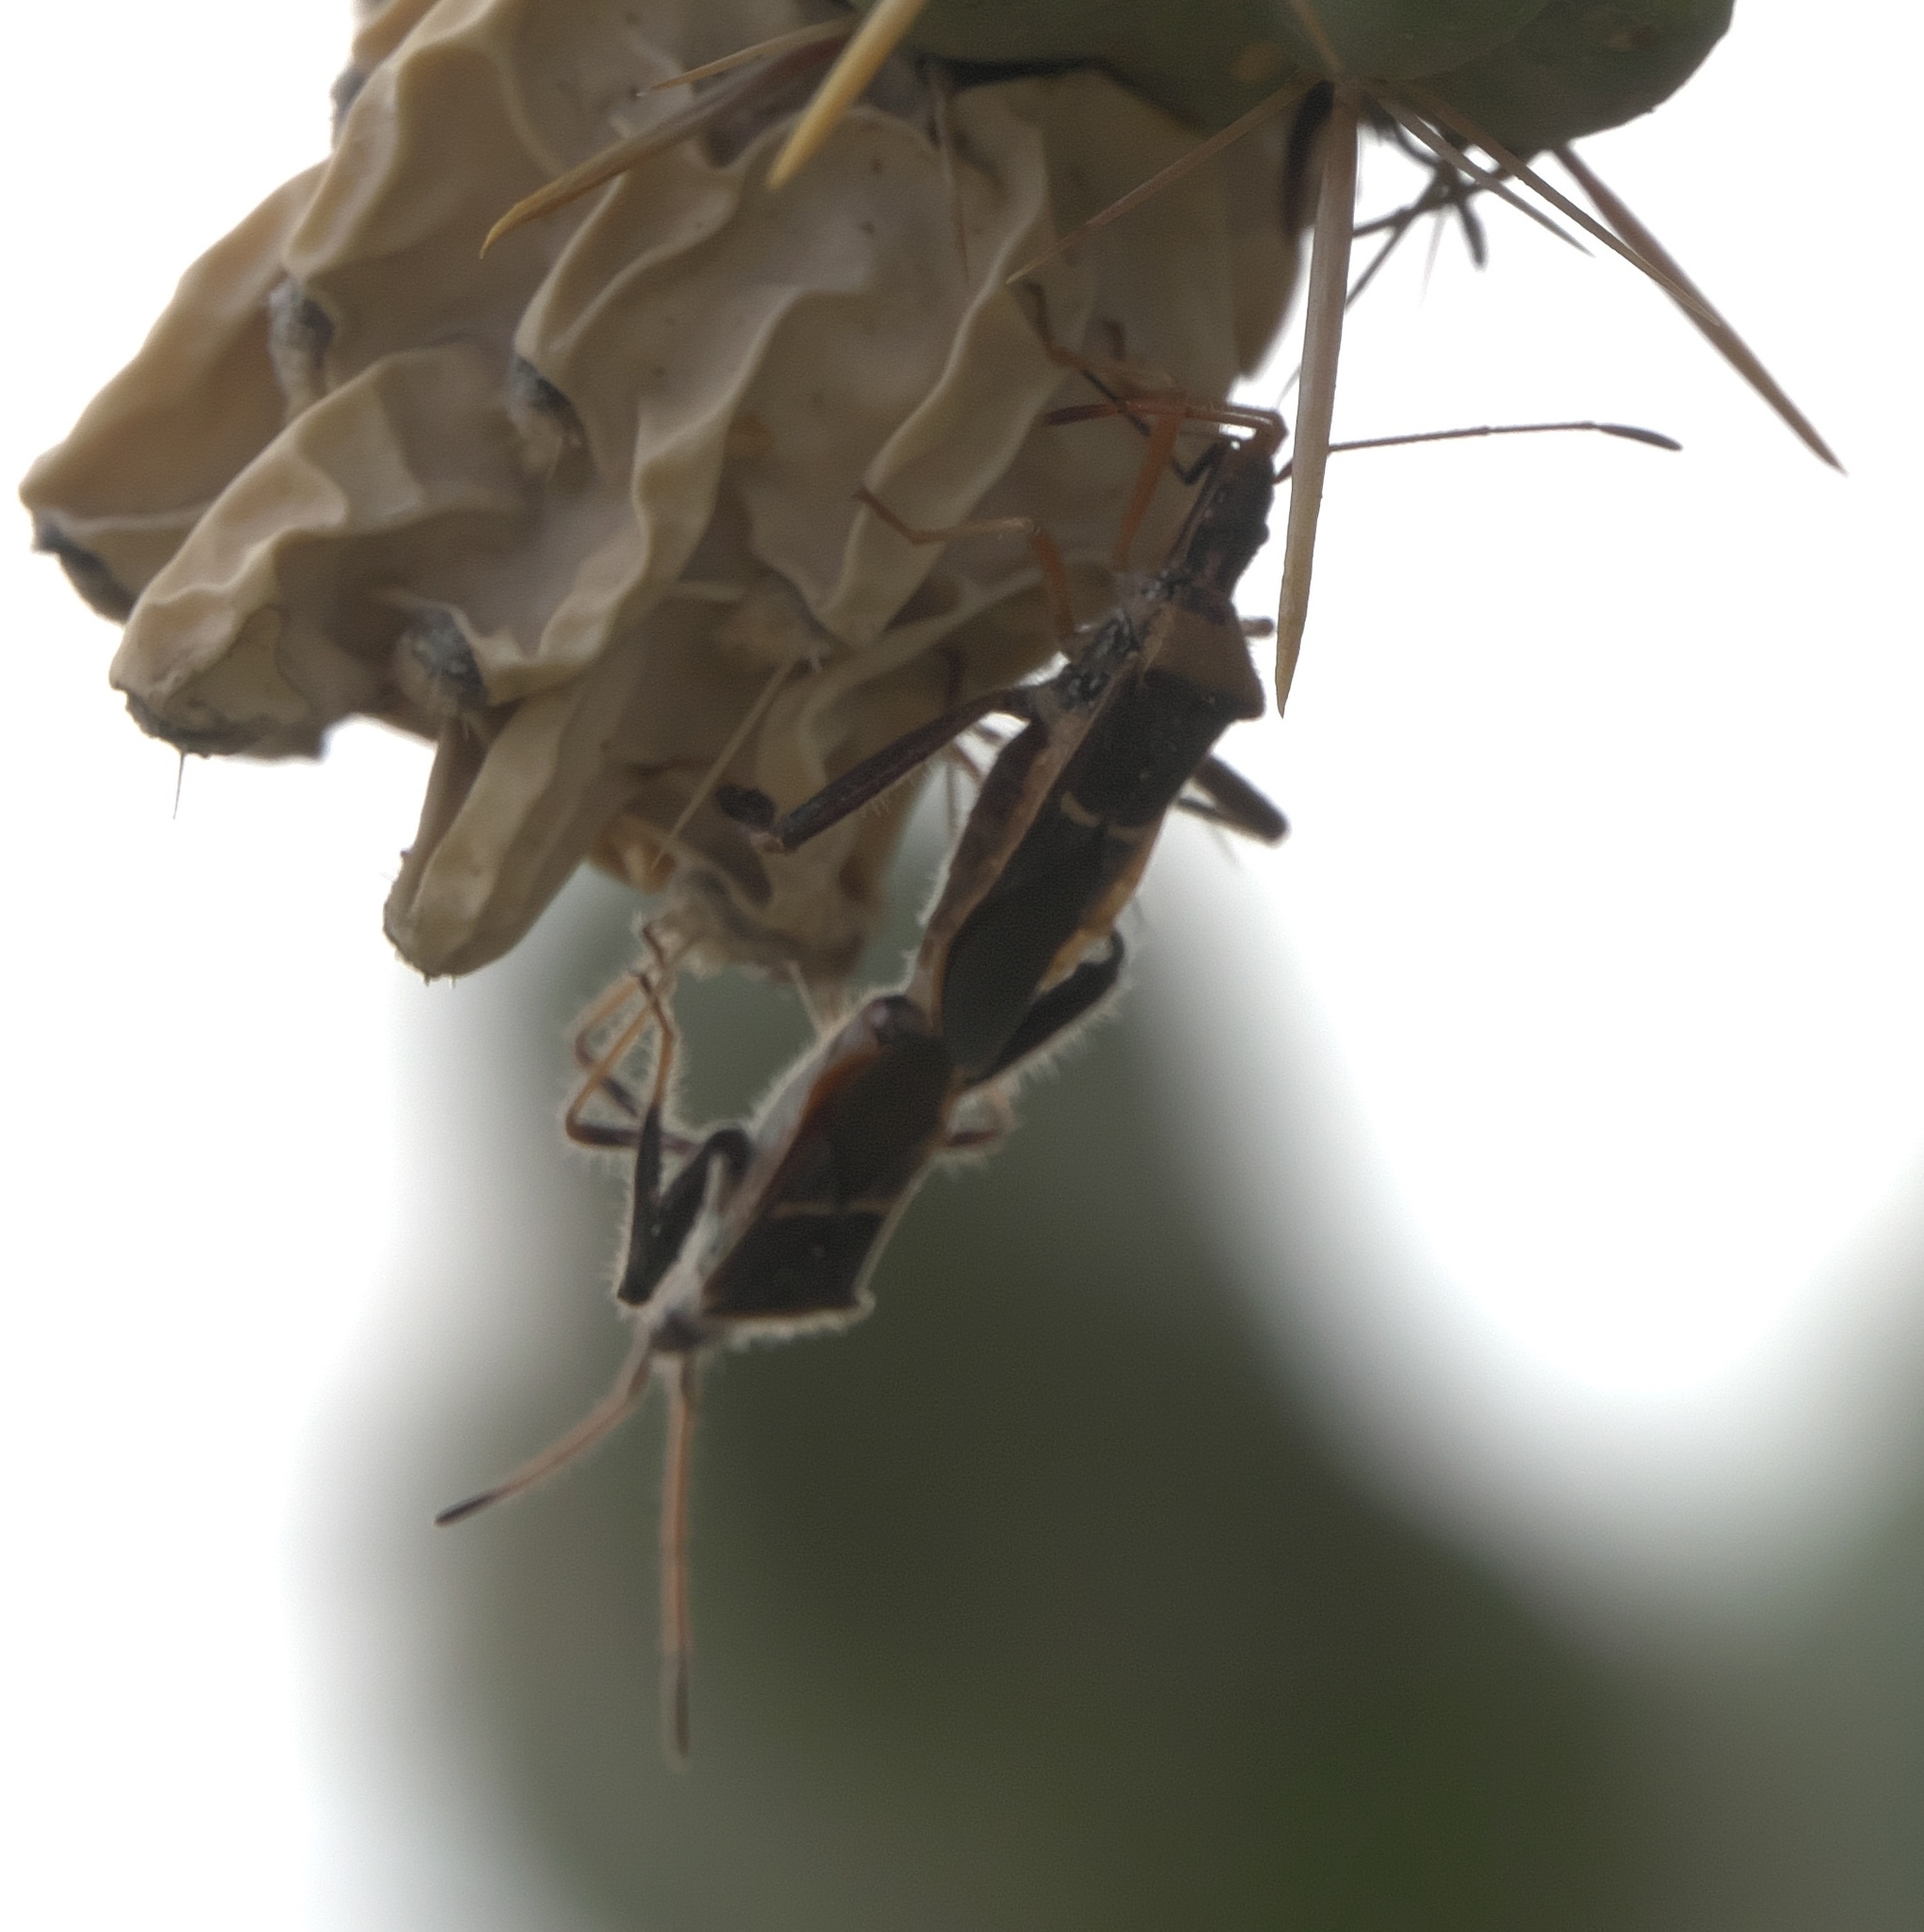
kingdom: Animalia
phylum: Arthropoda
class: Insecta
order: Hemiptera
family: Coreidae
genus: Narnia
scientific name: Narnia snowi
